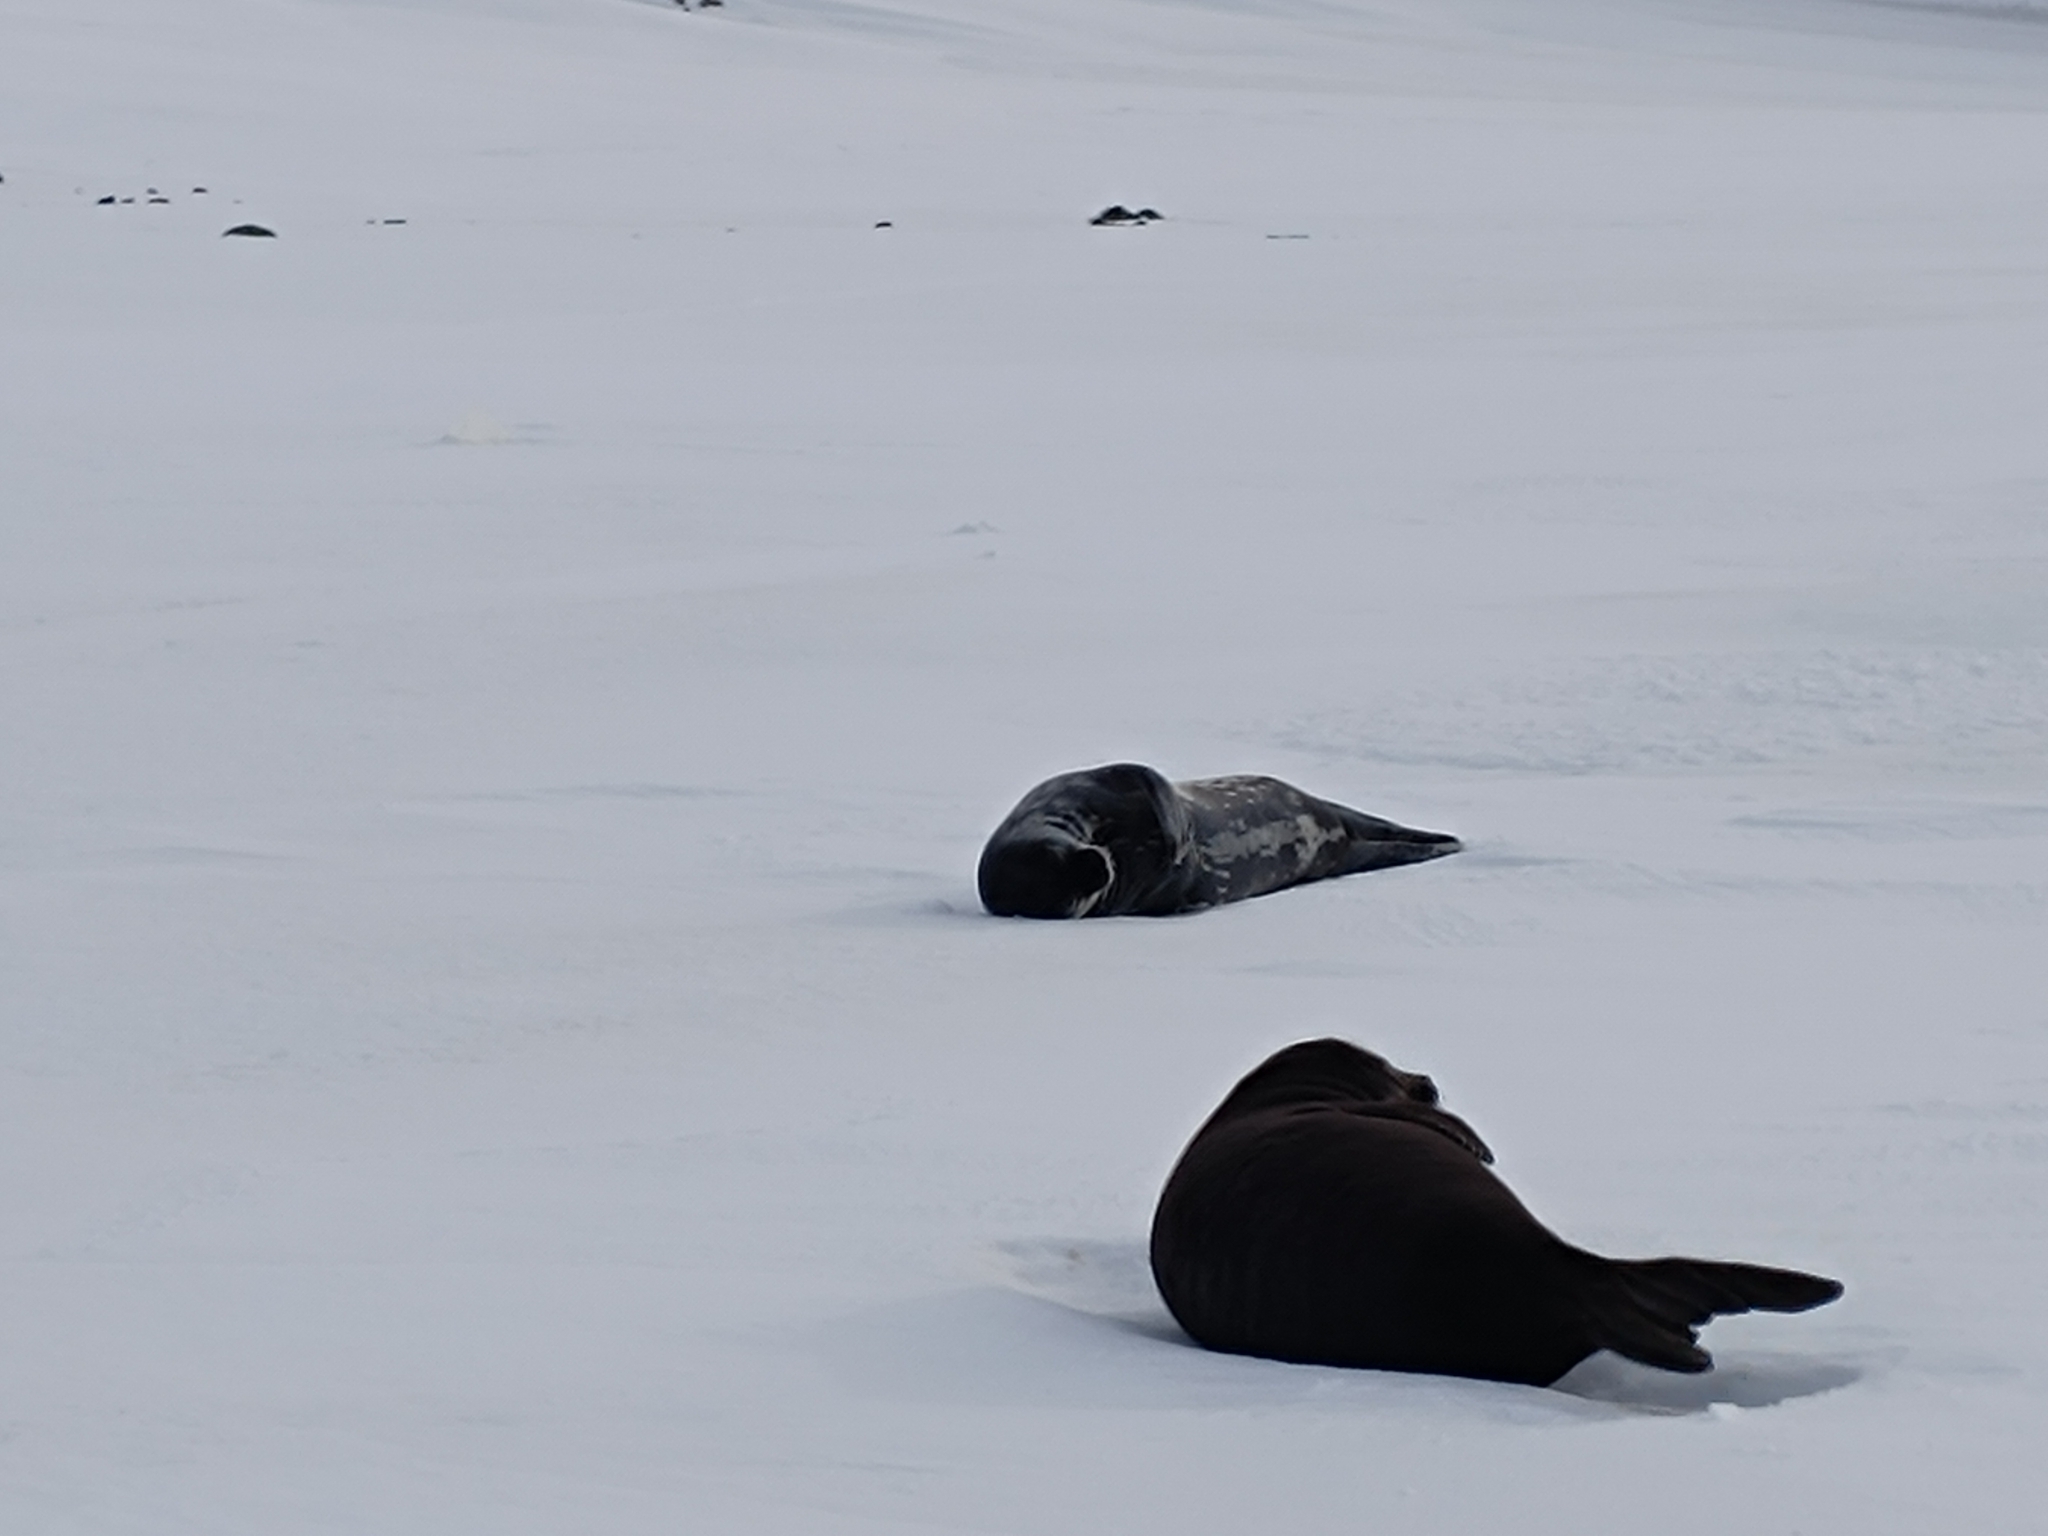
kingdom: Animalia
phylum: Chordata
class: Mammalia
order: Carnivora
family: Phocidae
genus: Leptonychotes
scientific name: Leptonychotes weddellii
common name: Weddell seal
